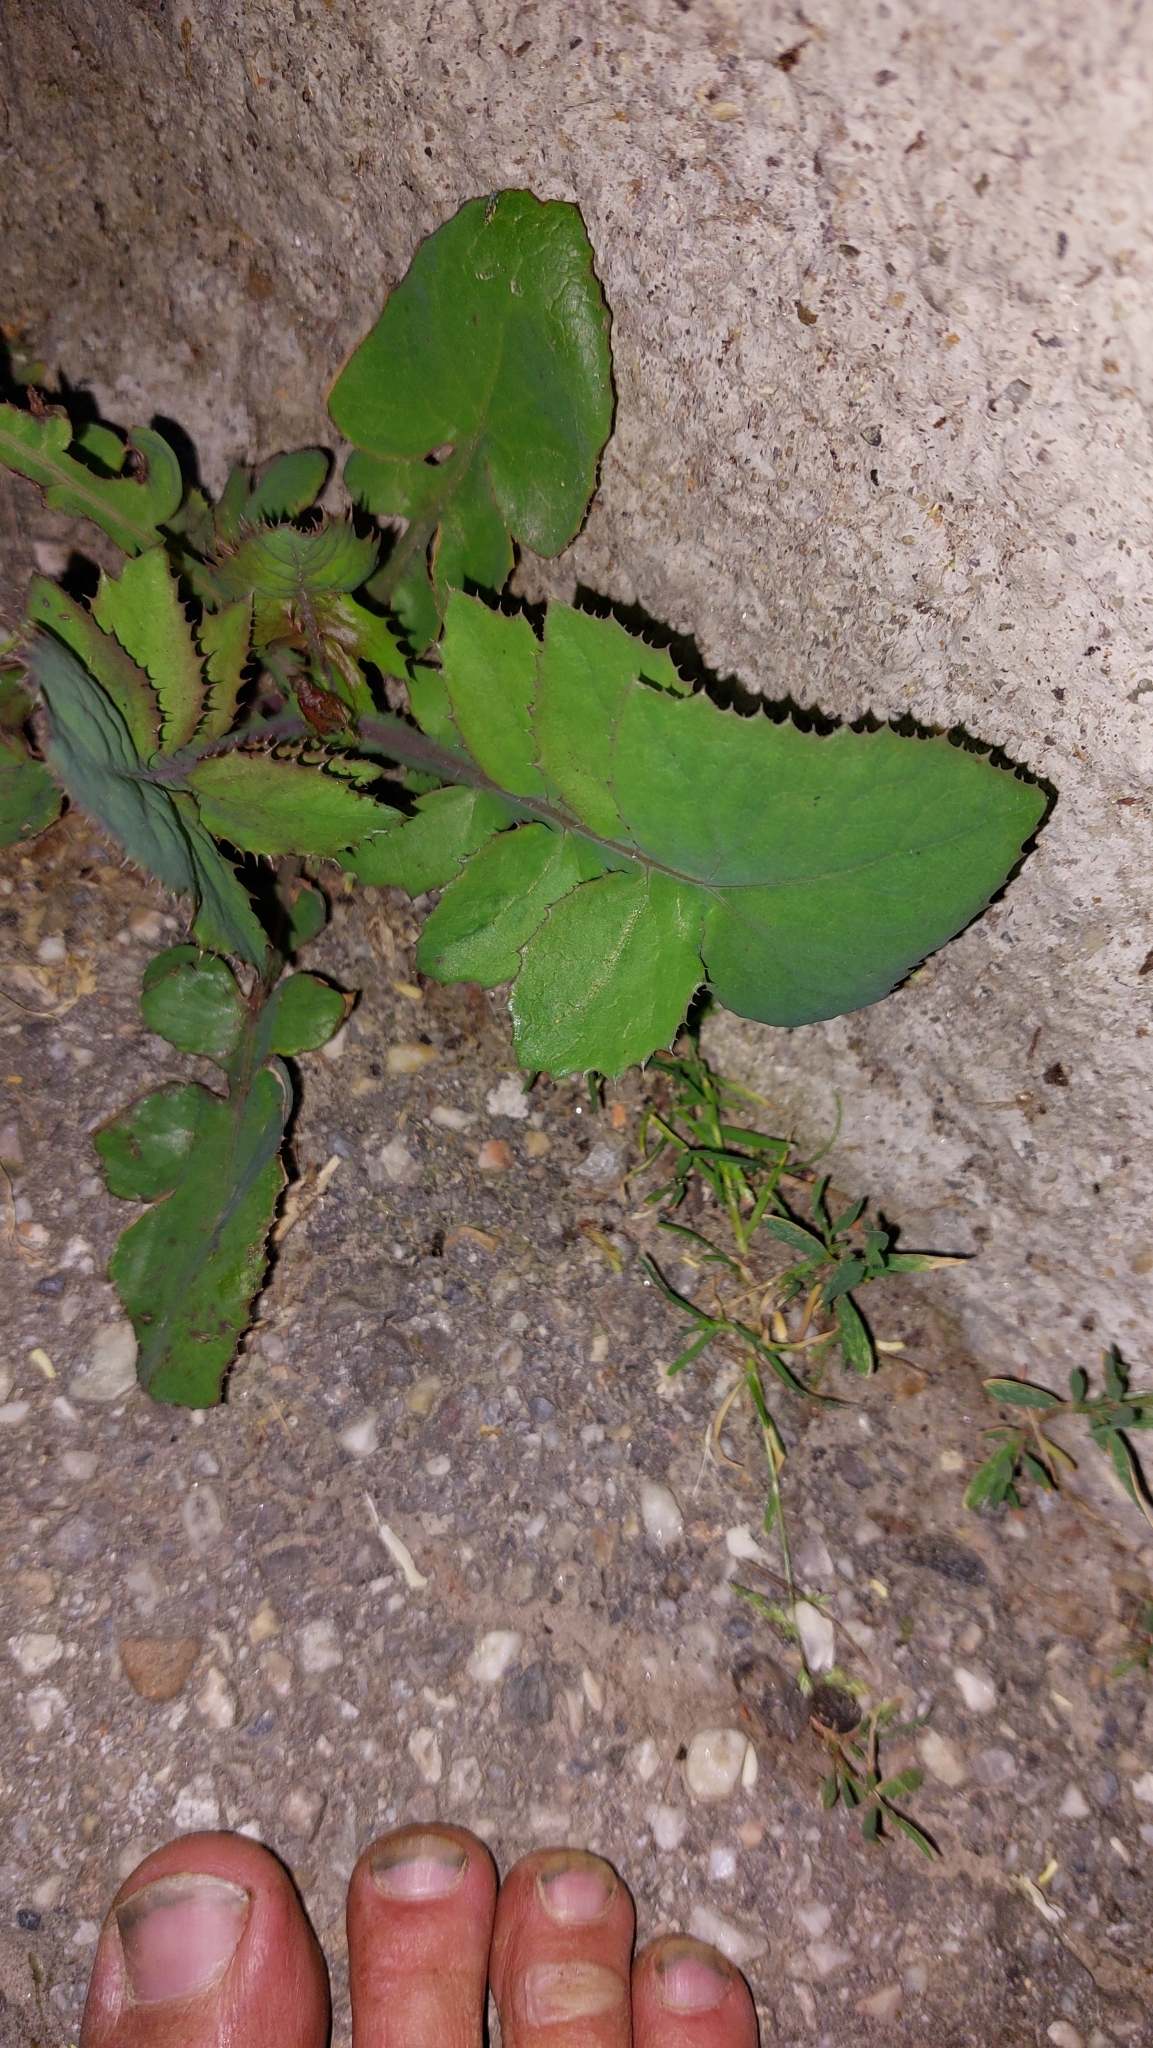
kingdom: Plantae
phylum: Tracheophyta
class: Magnoliopsida
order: Asterales
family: Asteraceae
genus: Sonchus
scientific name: Sonchus oleraceus
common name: Common sowthistle
